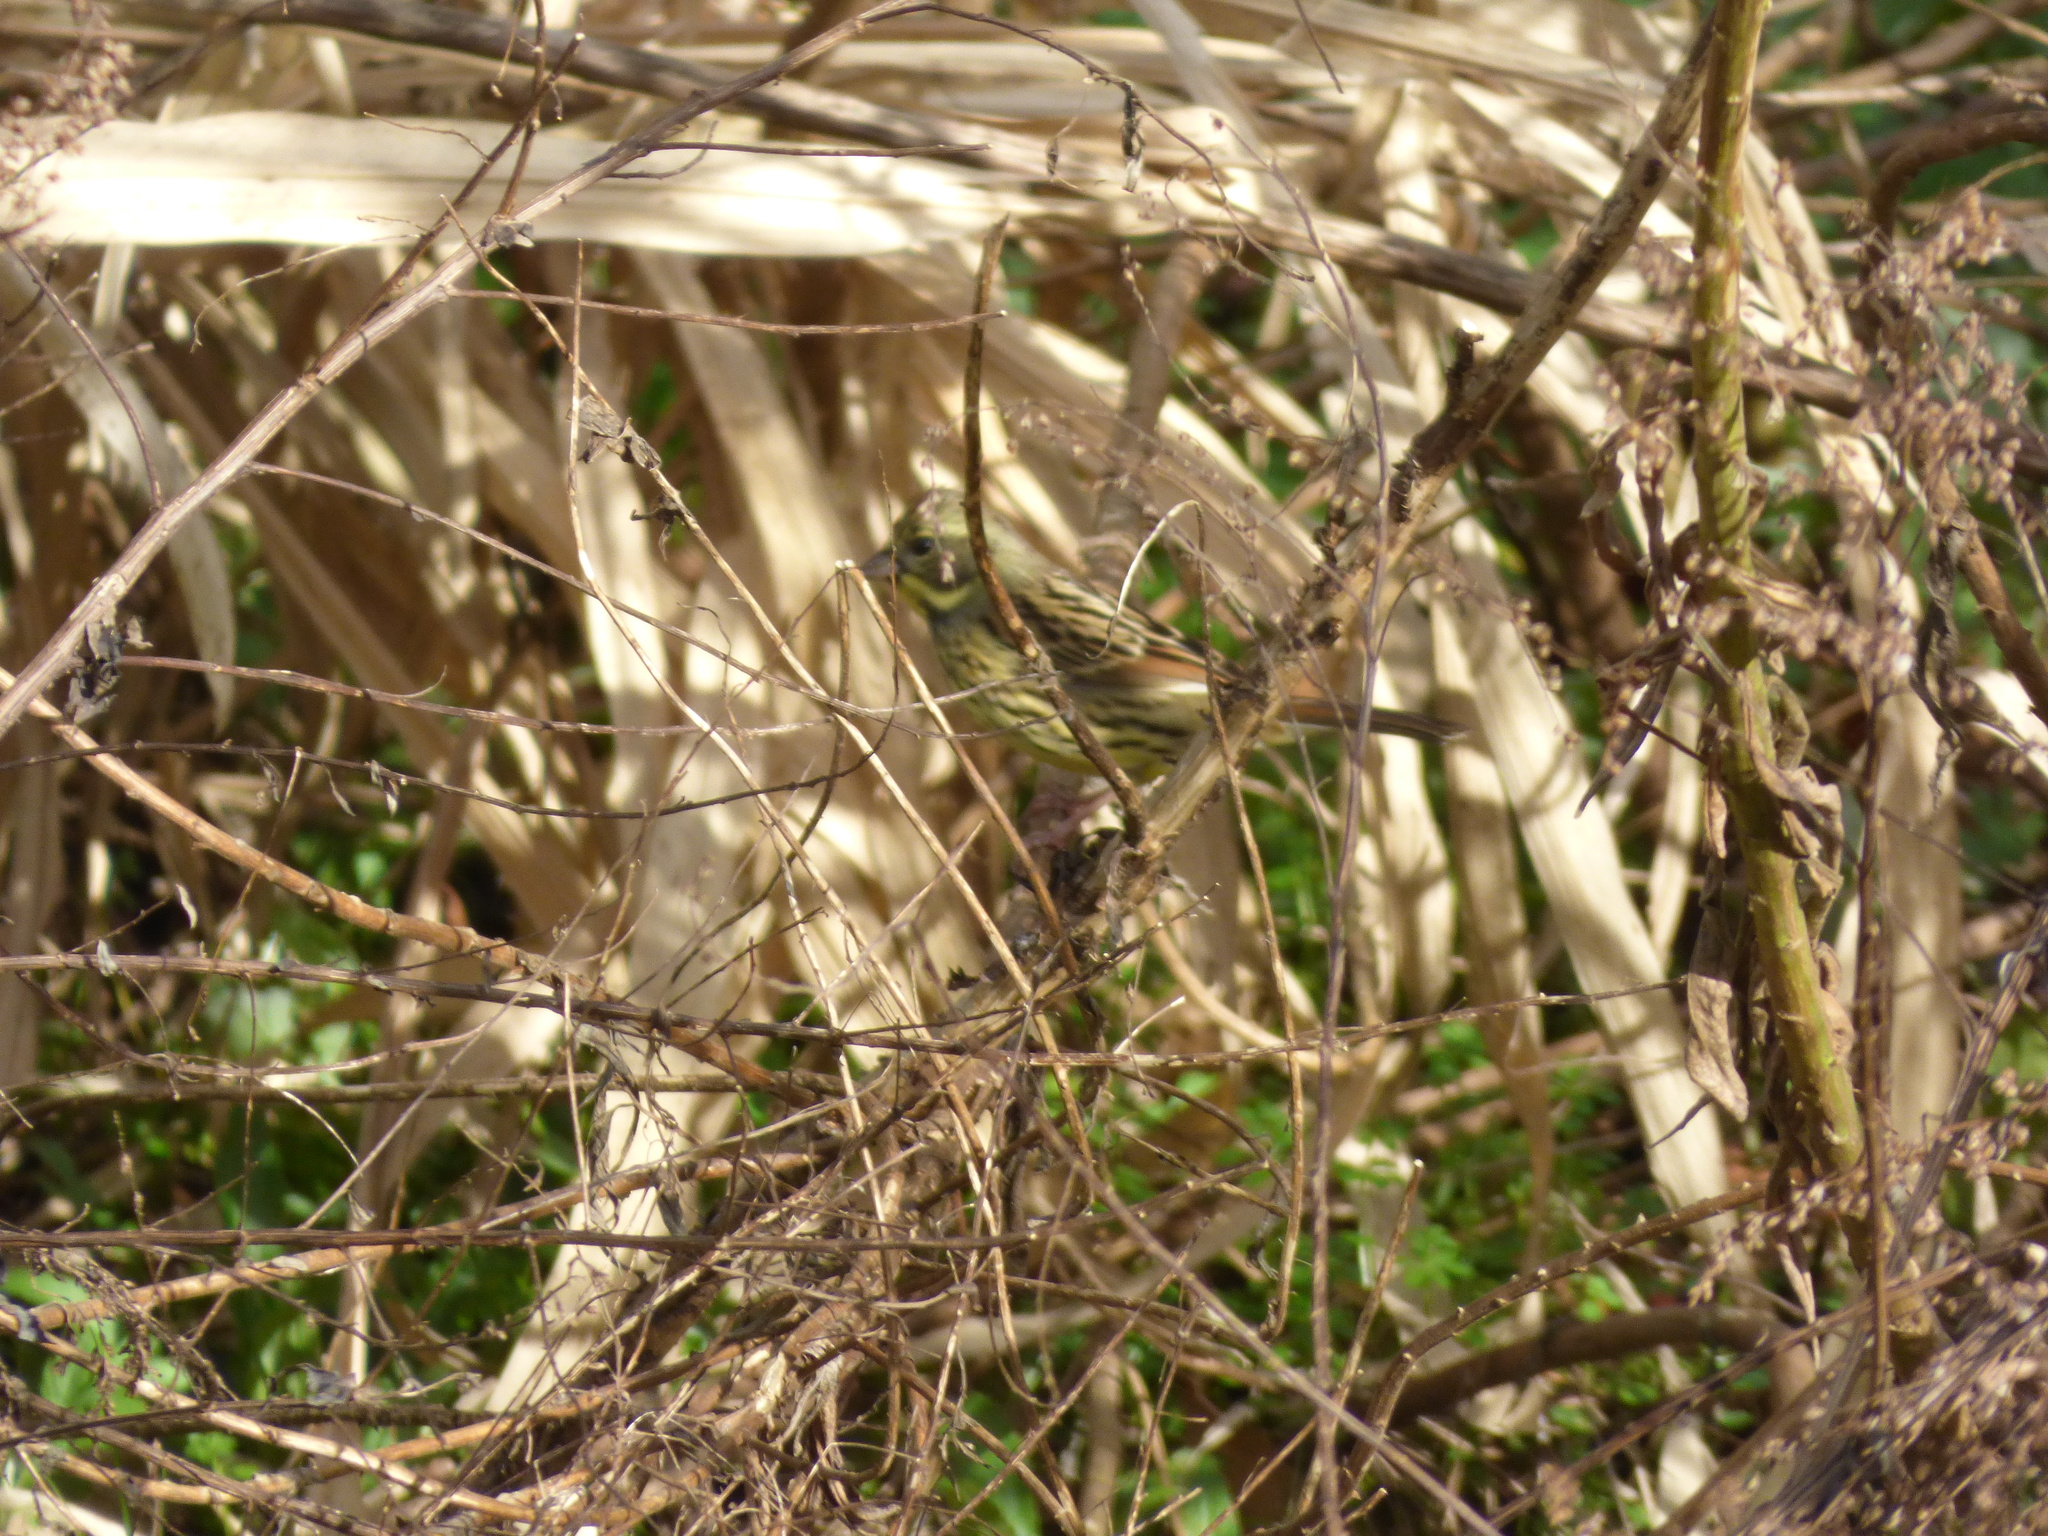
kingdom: Animalia
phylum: Chordata
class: Aves
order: Passeriformes
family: Emberizidae
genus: Emberiza
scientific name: Emberiza personata
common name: Masked bunting
